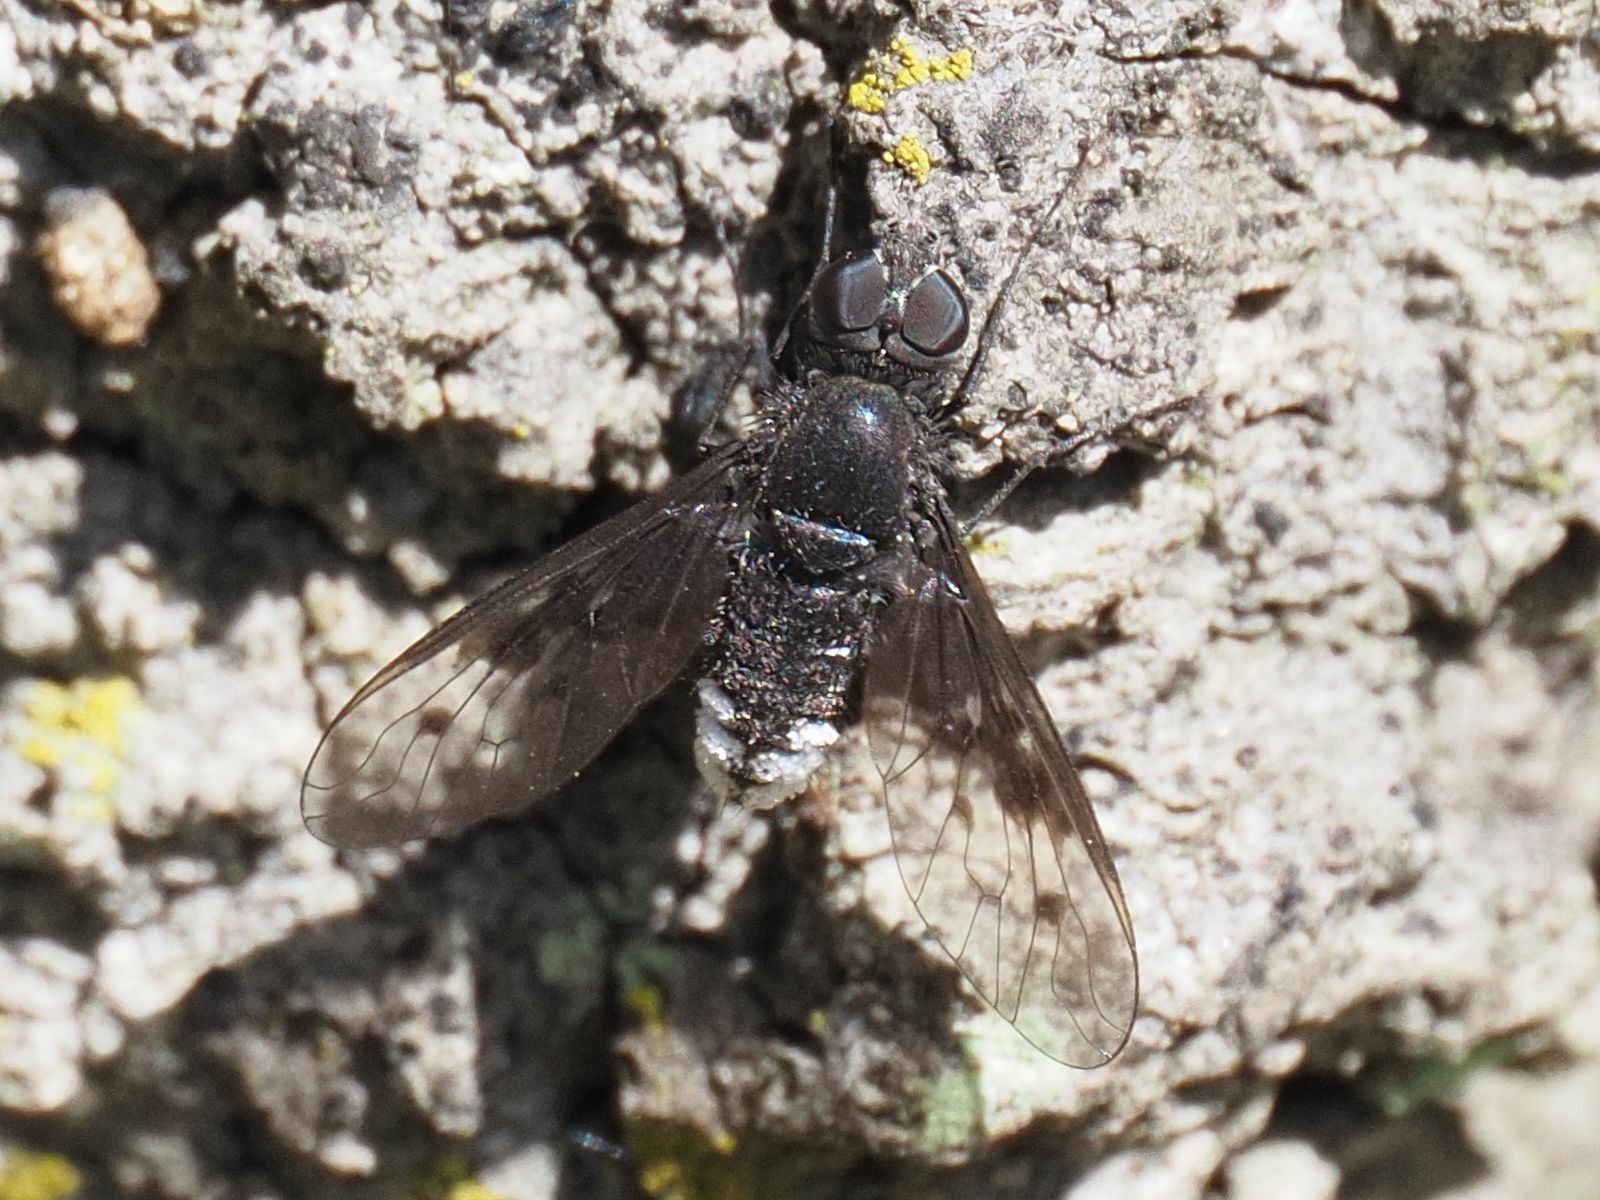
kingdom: Animalia
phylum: Arthropoda
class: Insecta
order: Diptera
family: Bombyliidae
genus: Anthrax
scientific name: Anthrax trifasciatus
